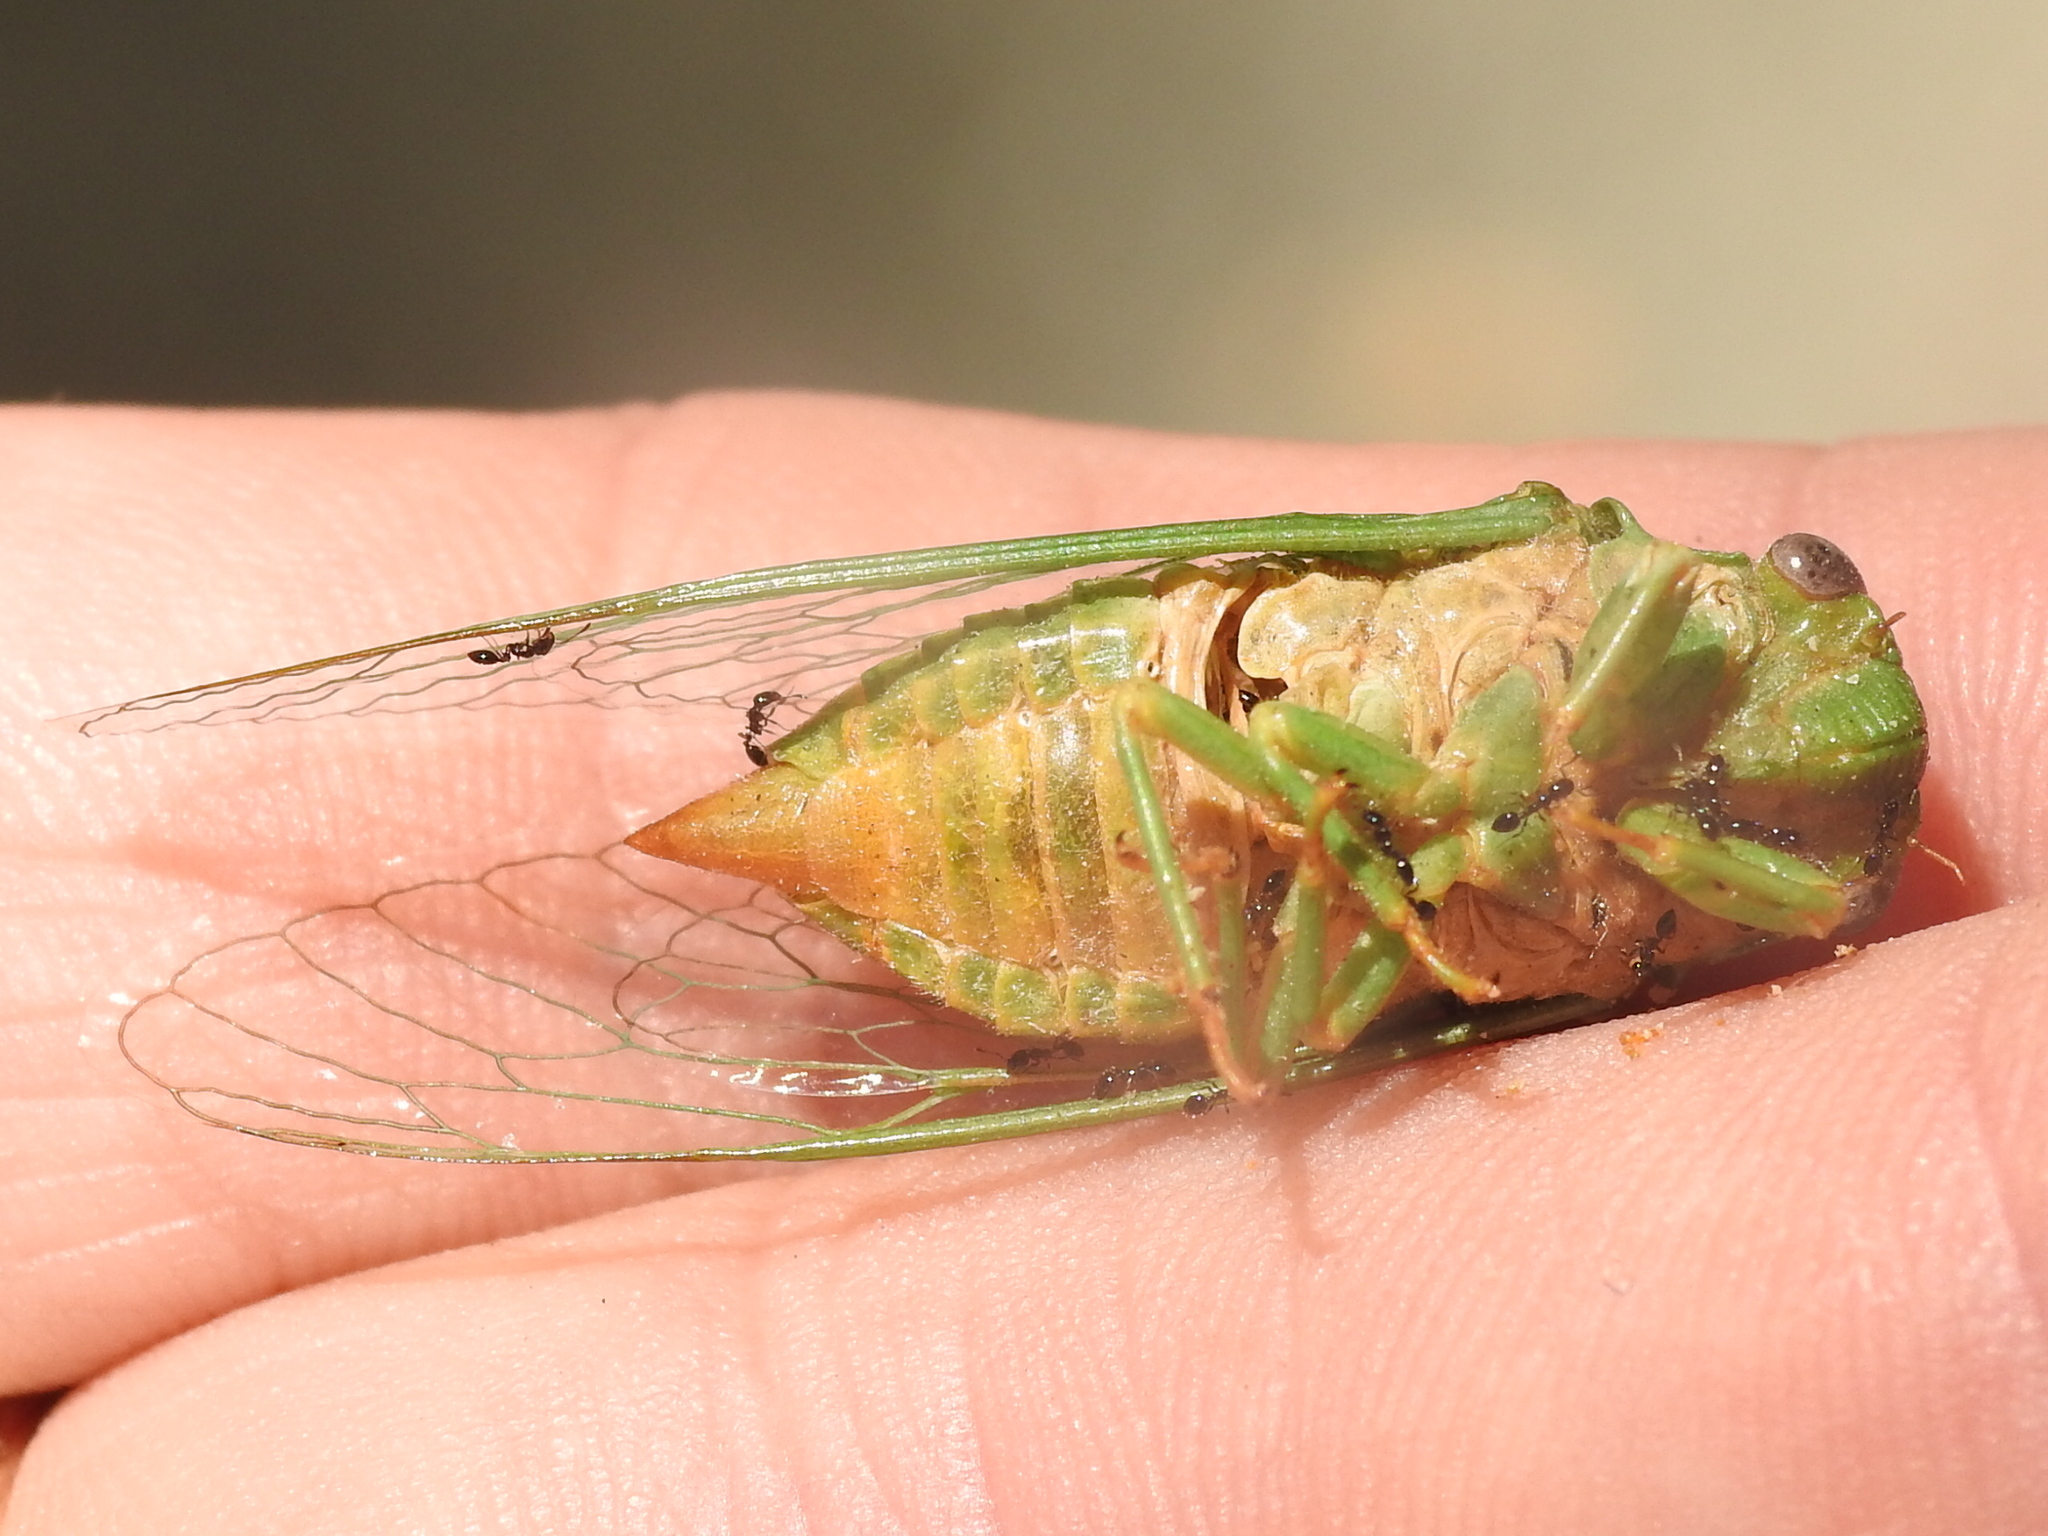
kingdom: Animalia
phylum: Arthropoda
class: Insecta
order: Hemiptera
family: Cicadidae
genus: Glaucopsaltria
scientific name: Glaucopsaltria viridis
